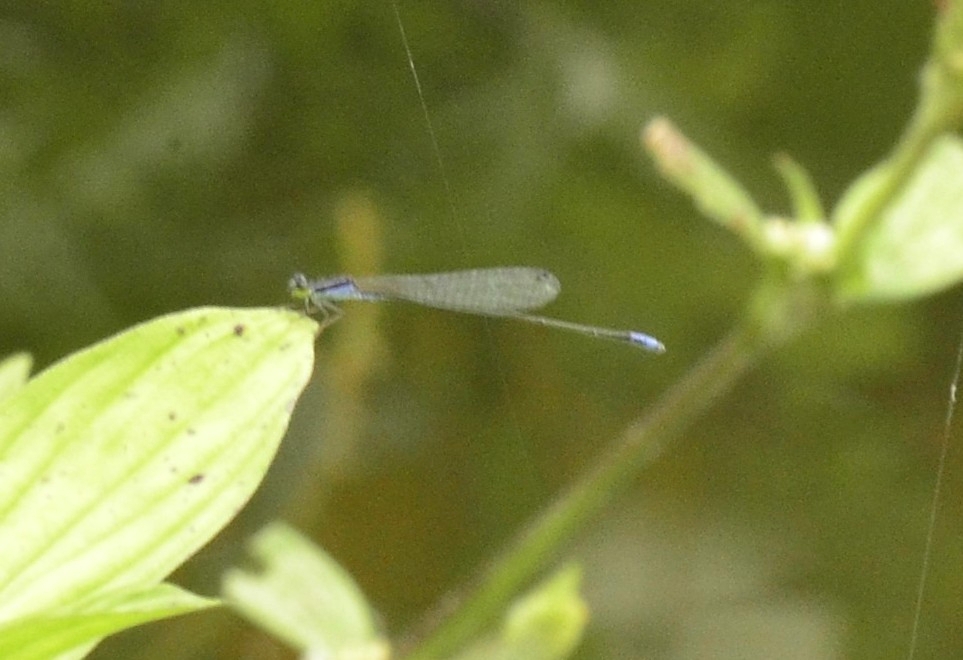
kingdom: Animalia
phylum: Arthropoda
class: Insecta
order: Odonata
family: Coenagrionidae
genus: Aciagrion
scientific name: Aciagrion approximans
